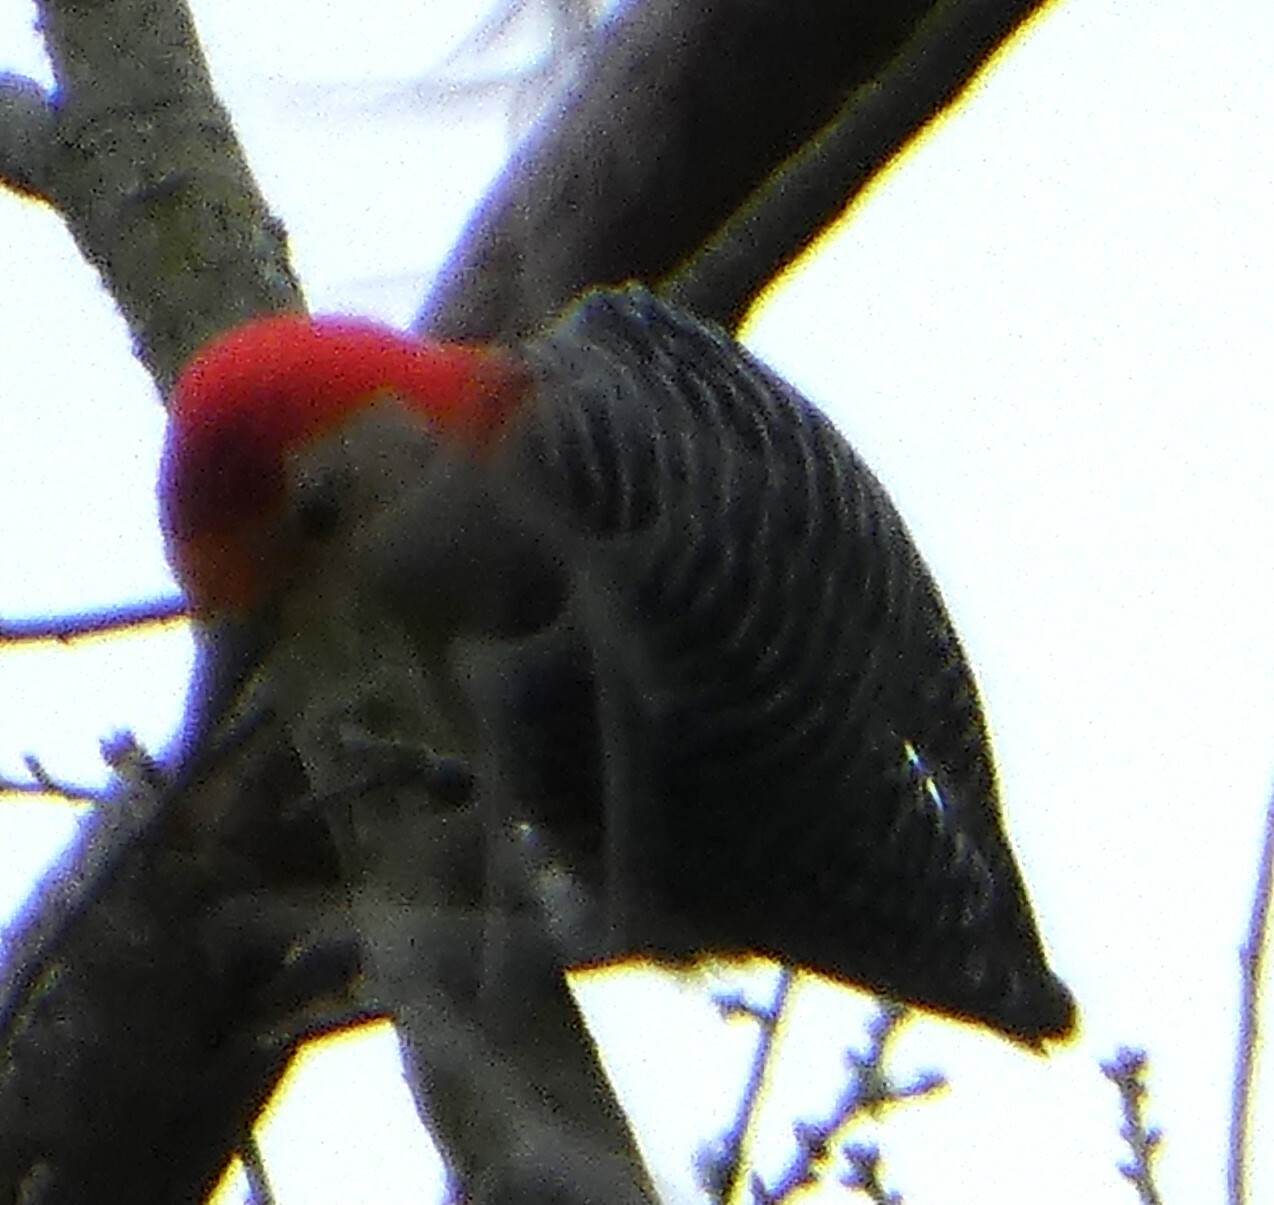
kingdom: Animalia
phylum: Chordata
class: Aves
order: Piciformes
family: Picidae
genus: Melanerpes
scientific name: Melanerpes carolinus
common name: Red-bellied woodpecker
